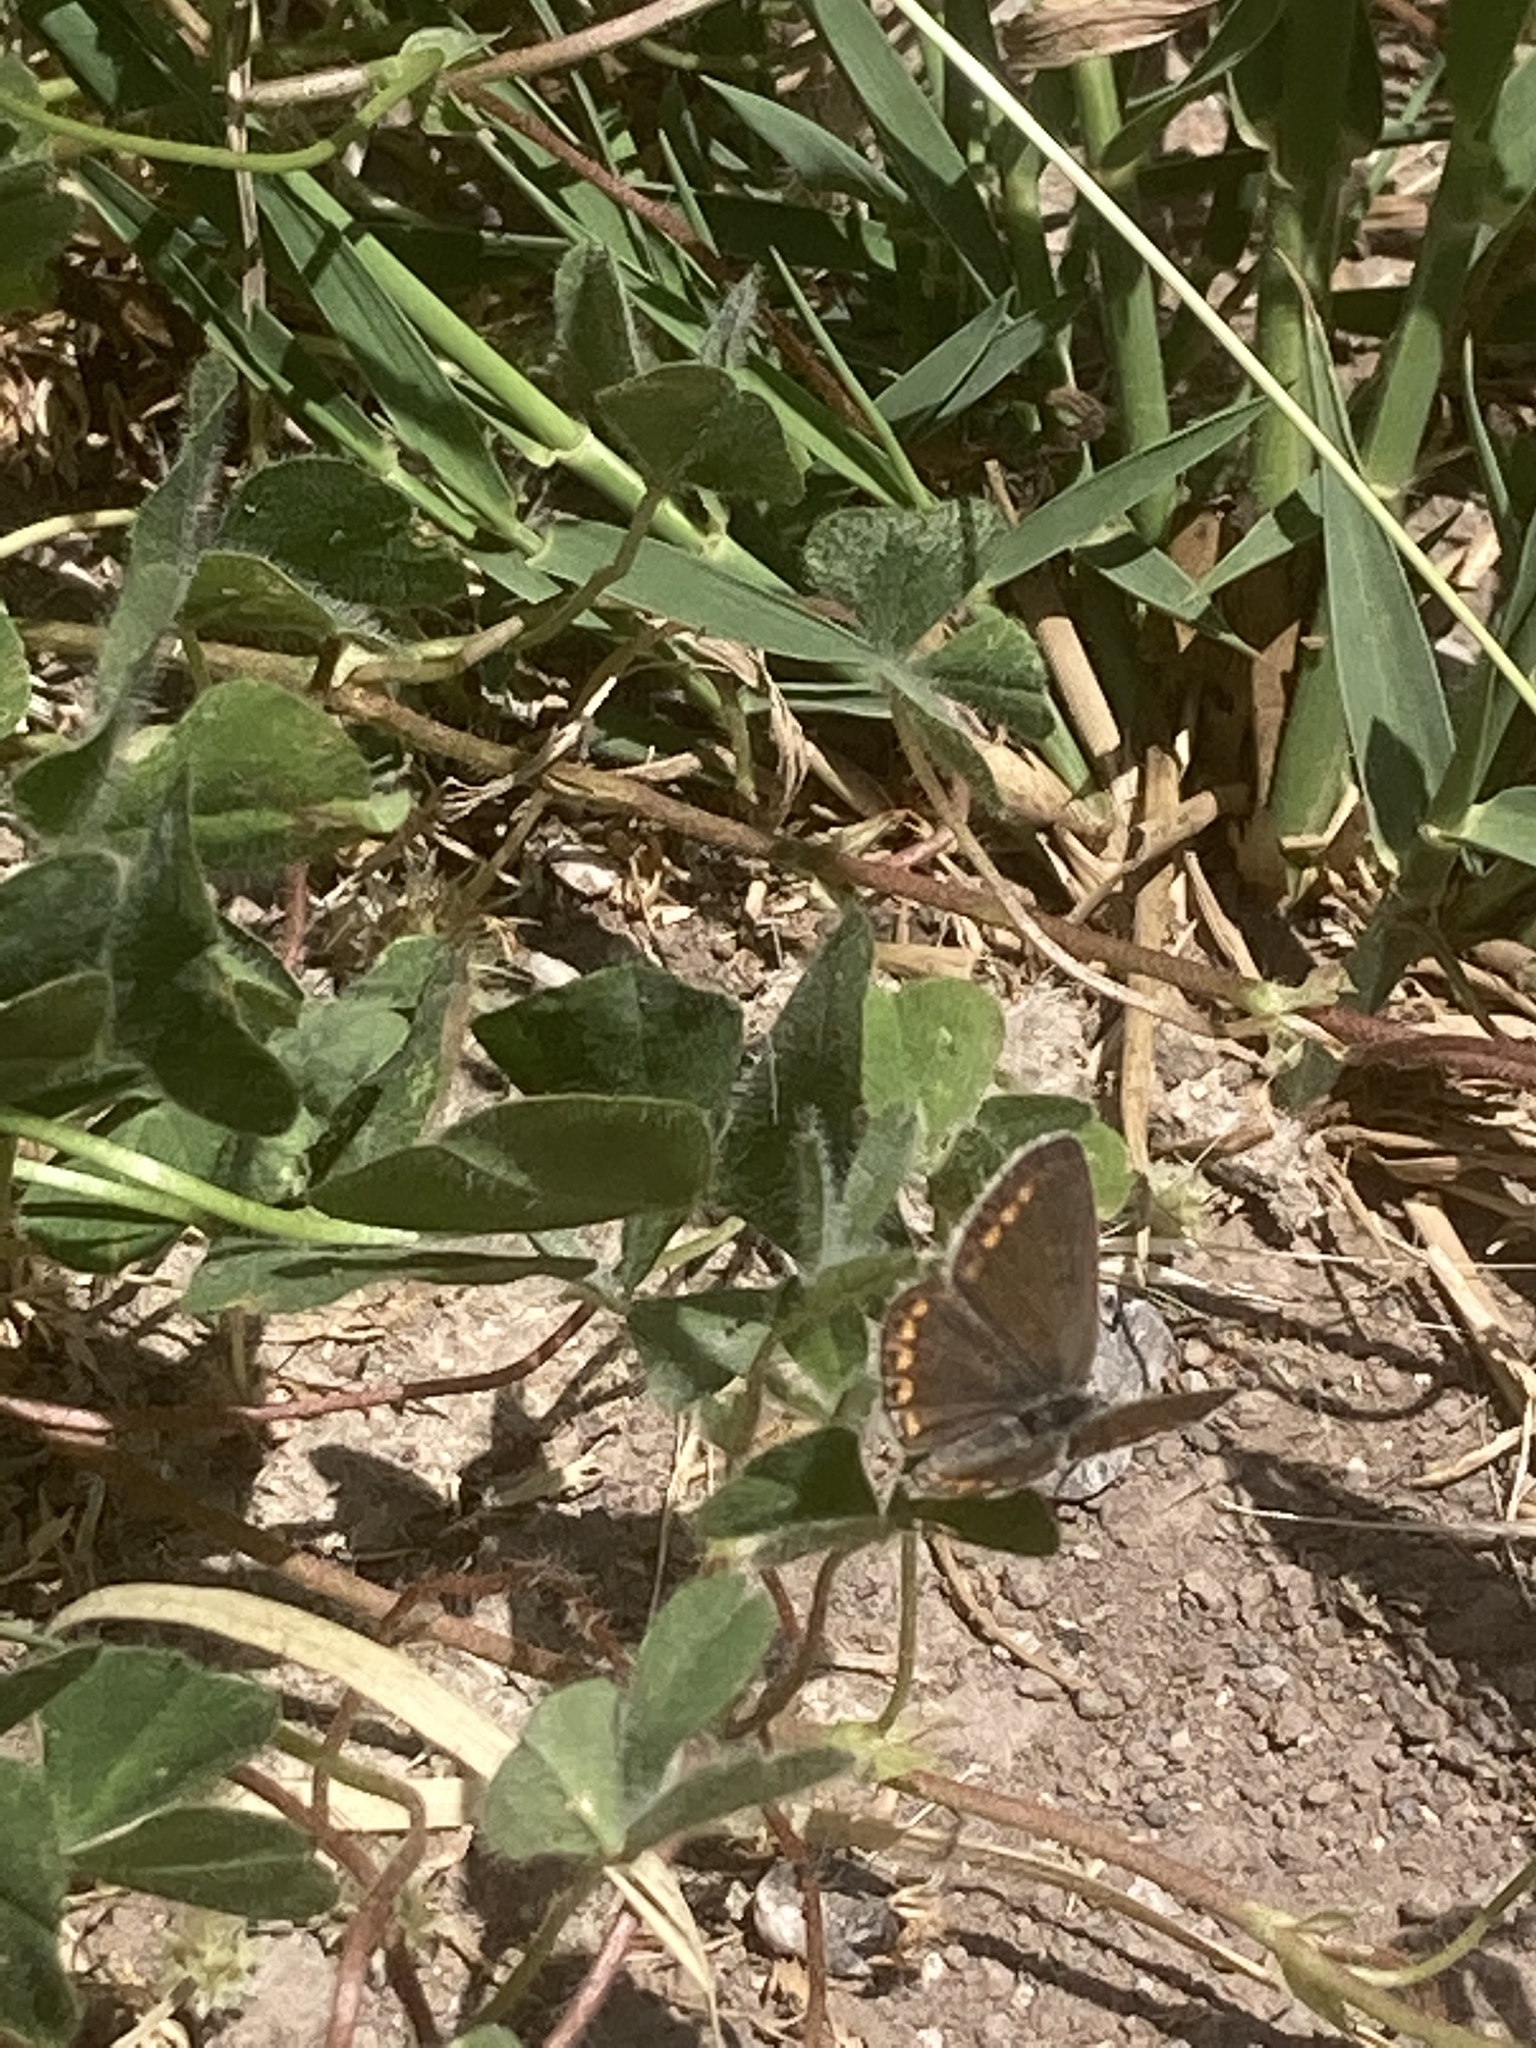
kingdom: Animalia
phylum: Arthropoda
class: Insecta
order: Lepidoptera
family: Lycaenidae
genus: Aricia
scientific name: Aricia agestis
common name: Brown argus
